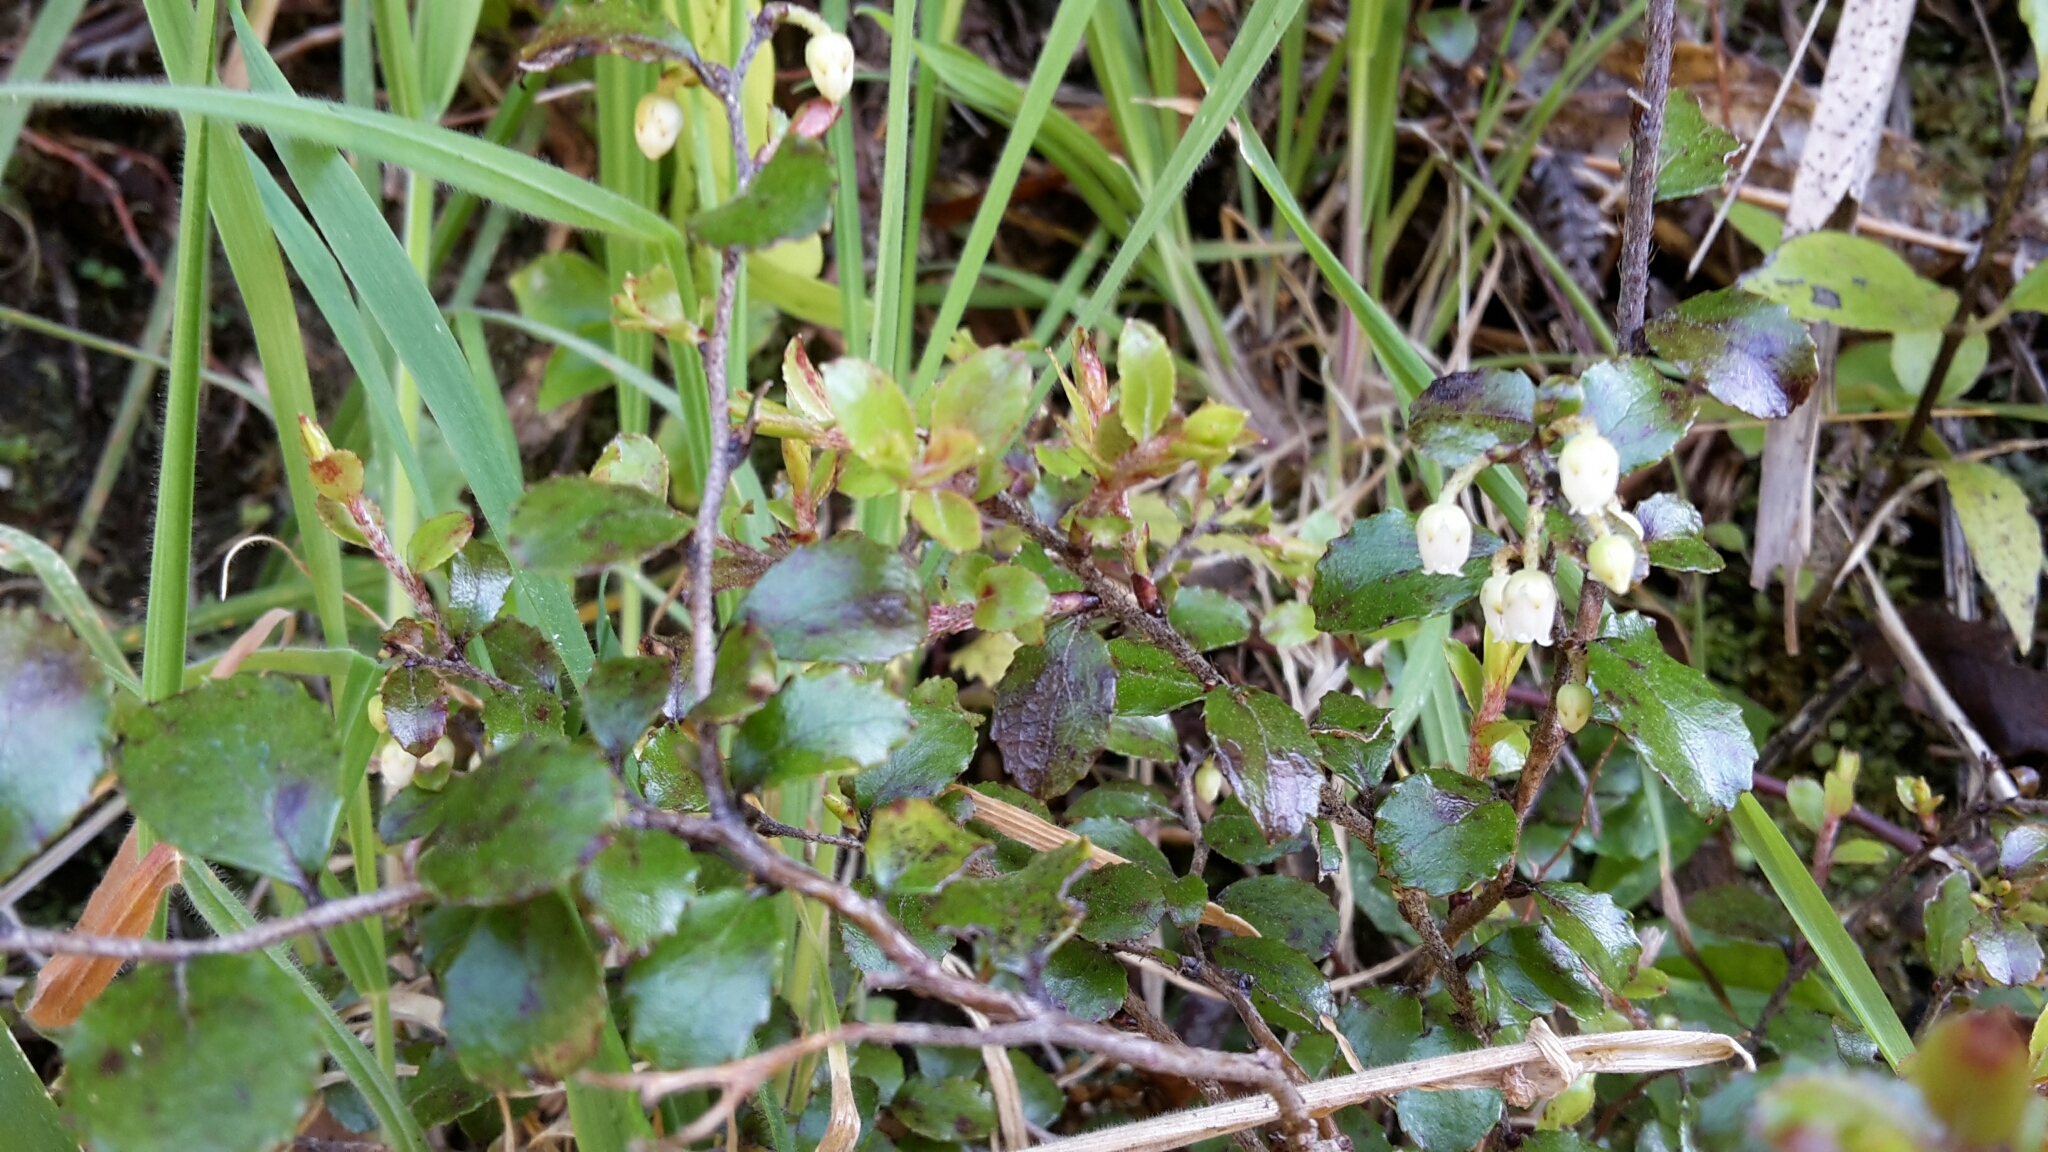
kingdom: Plantae
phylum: Tracheophyta
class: Magnoliopsida
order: Ericales
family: Ericaceae
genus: Gaultheria
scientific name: Gaultheria antipoda
